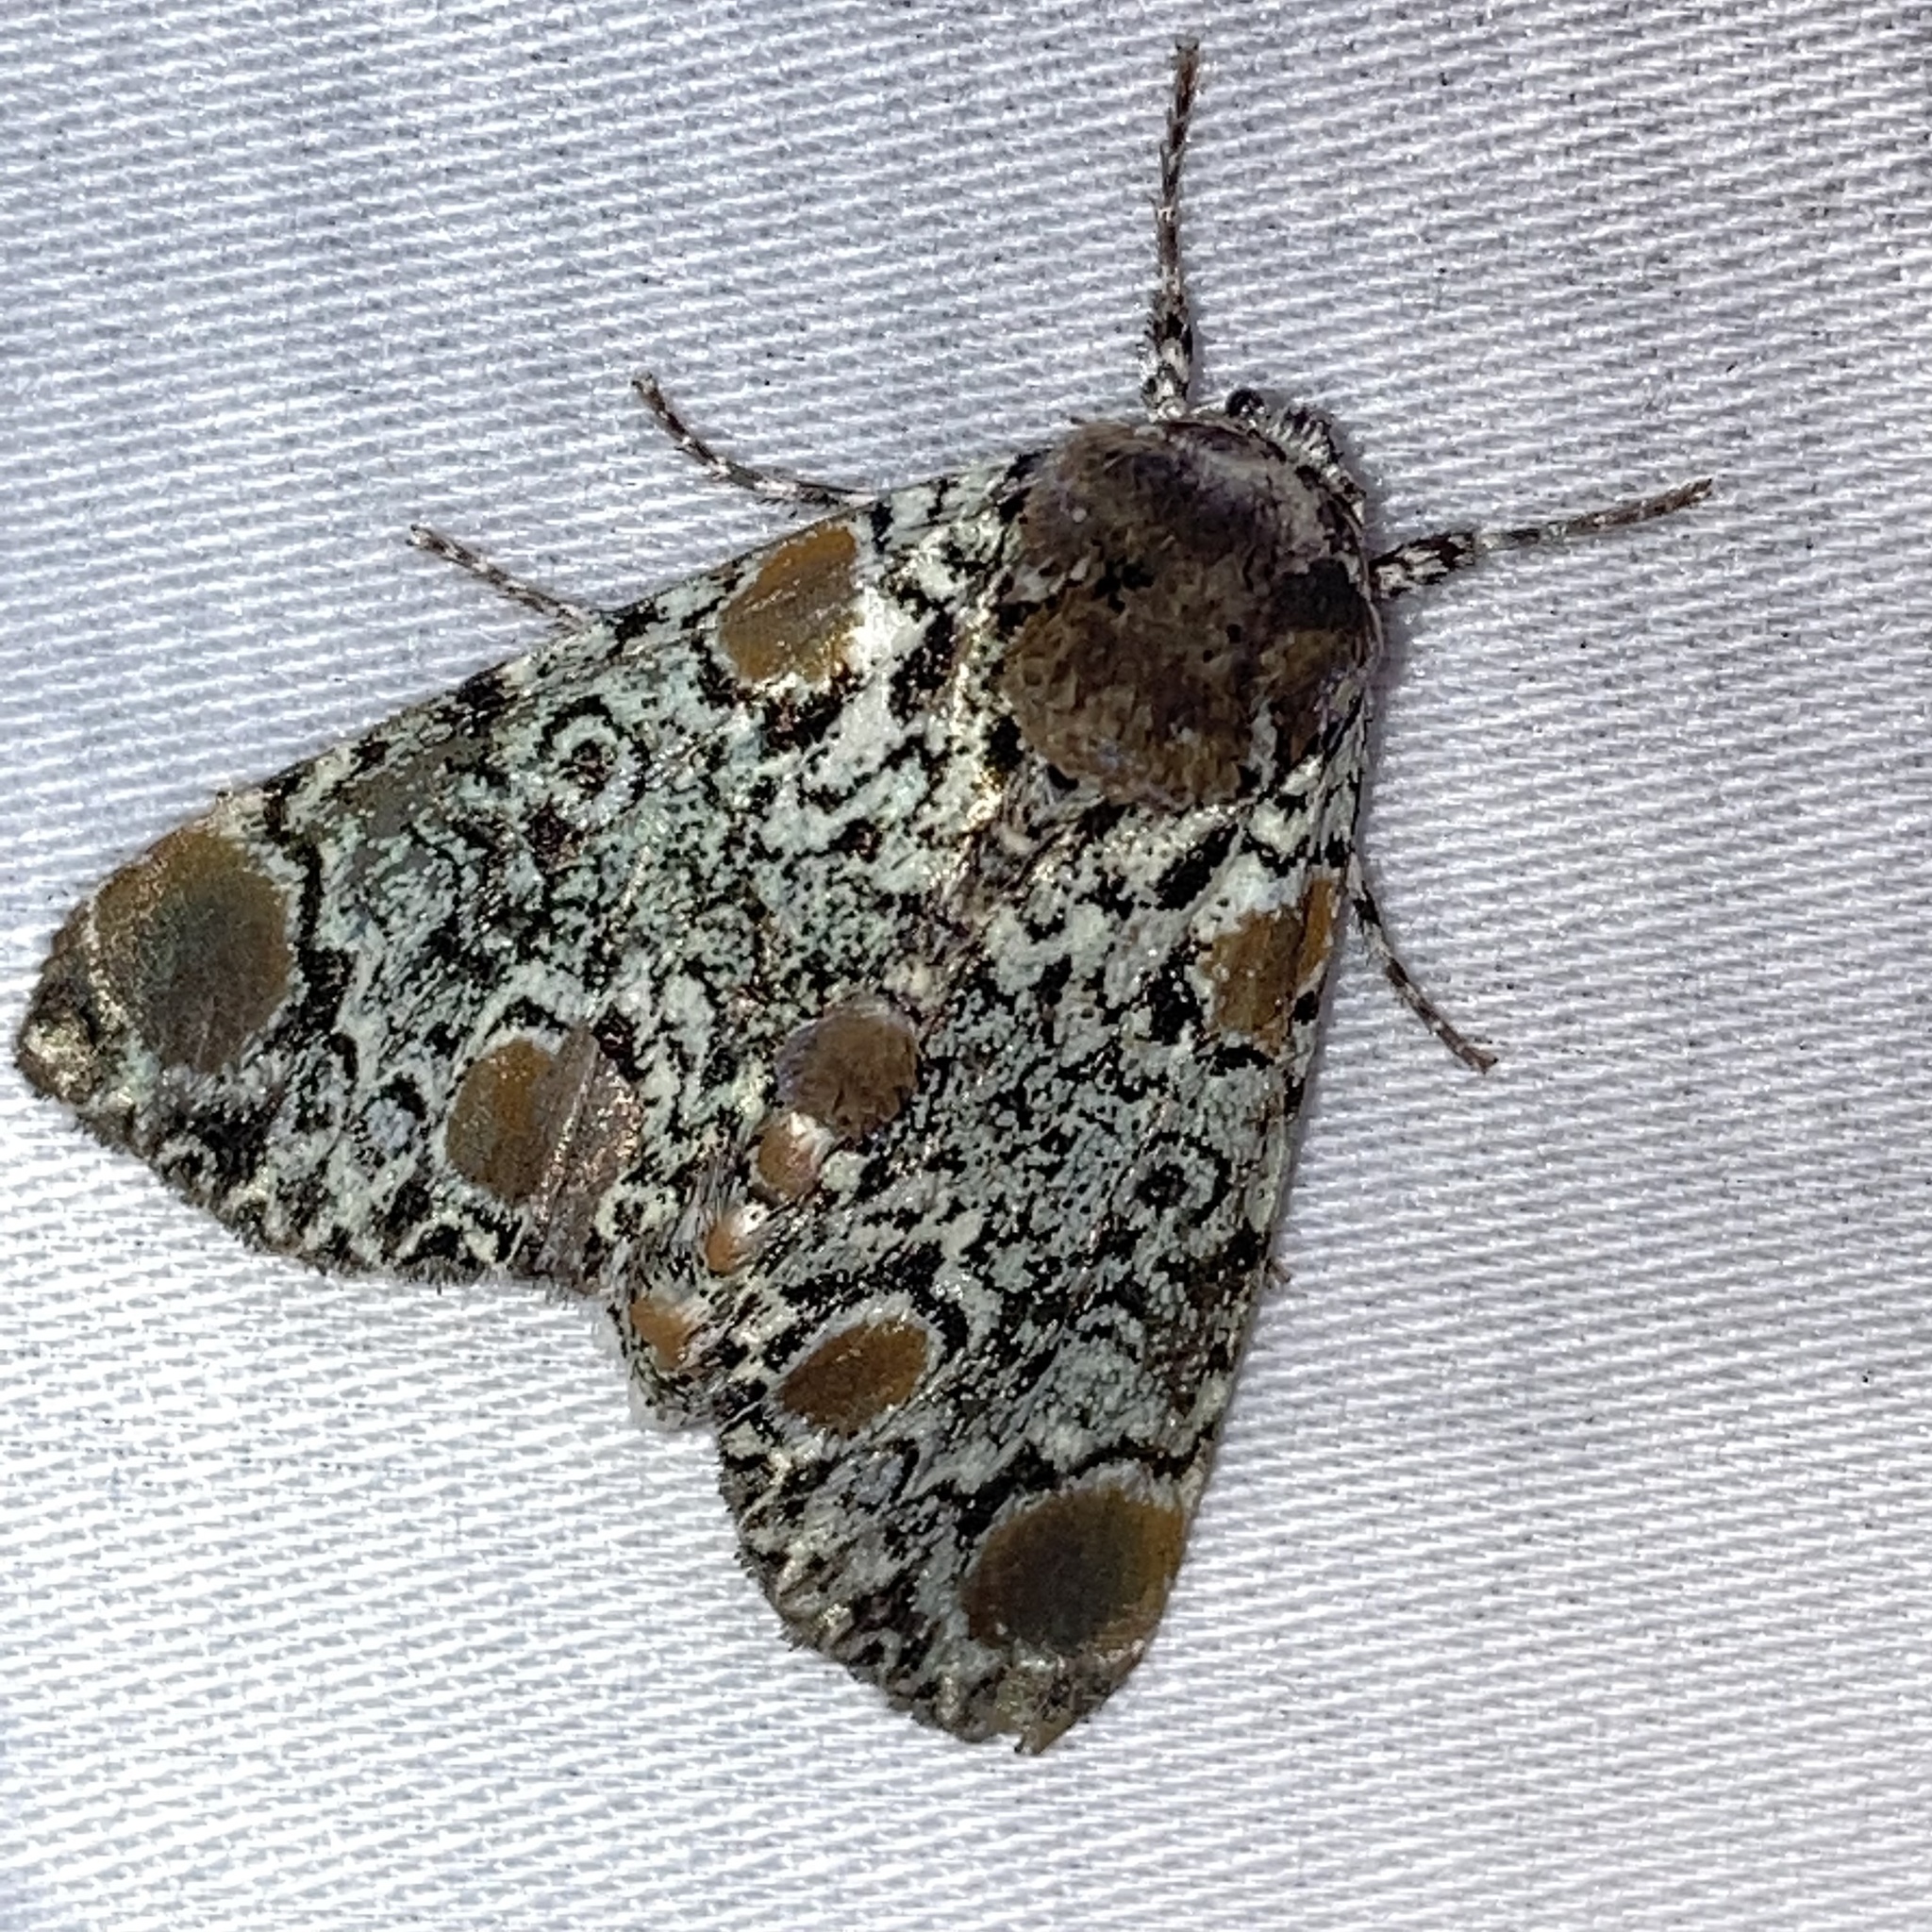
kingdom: Animalia
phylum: Arthropoda
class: Insecta
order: Lepidoptera
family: Noctuidae
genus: Harrisimemna
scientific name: Harrisimemna trisignata
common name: Harris threespot
